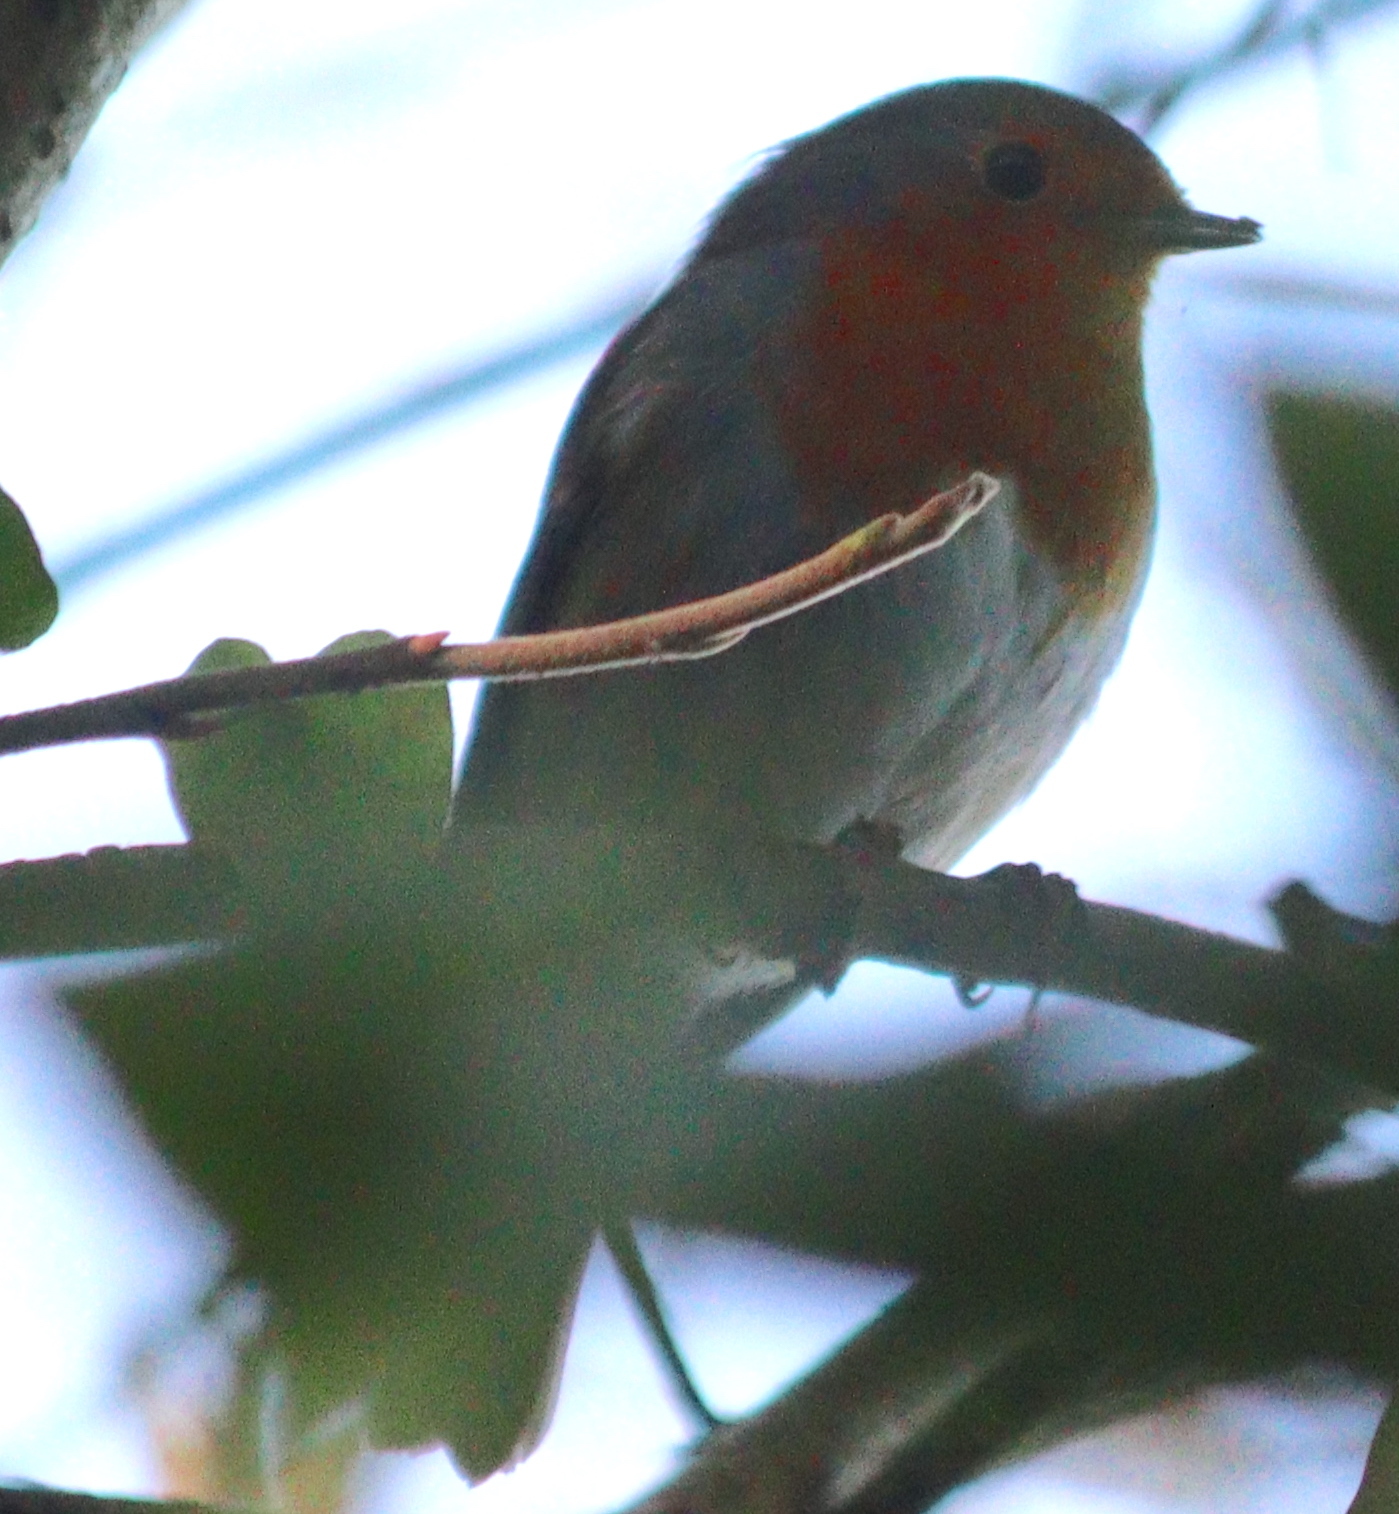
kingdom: Animalia
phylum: Chordata
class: Aves
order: Passeriformes
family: Muscicapidae
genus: Erithacus
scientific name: Erithacus rubecula
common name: European robin
